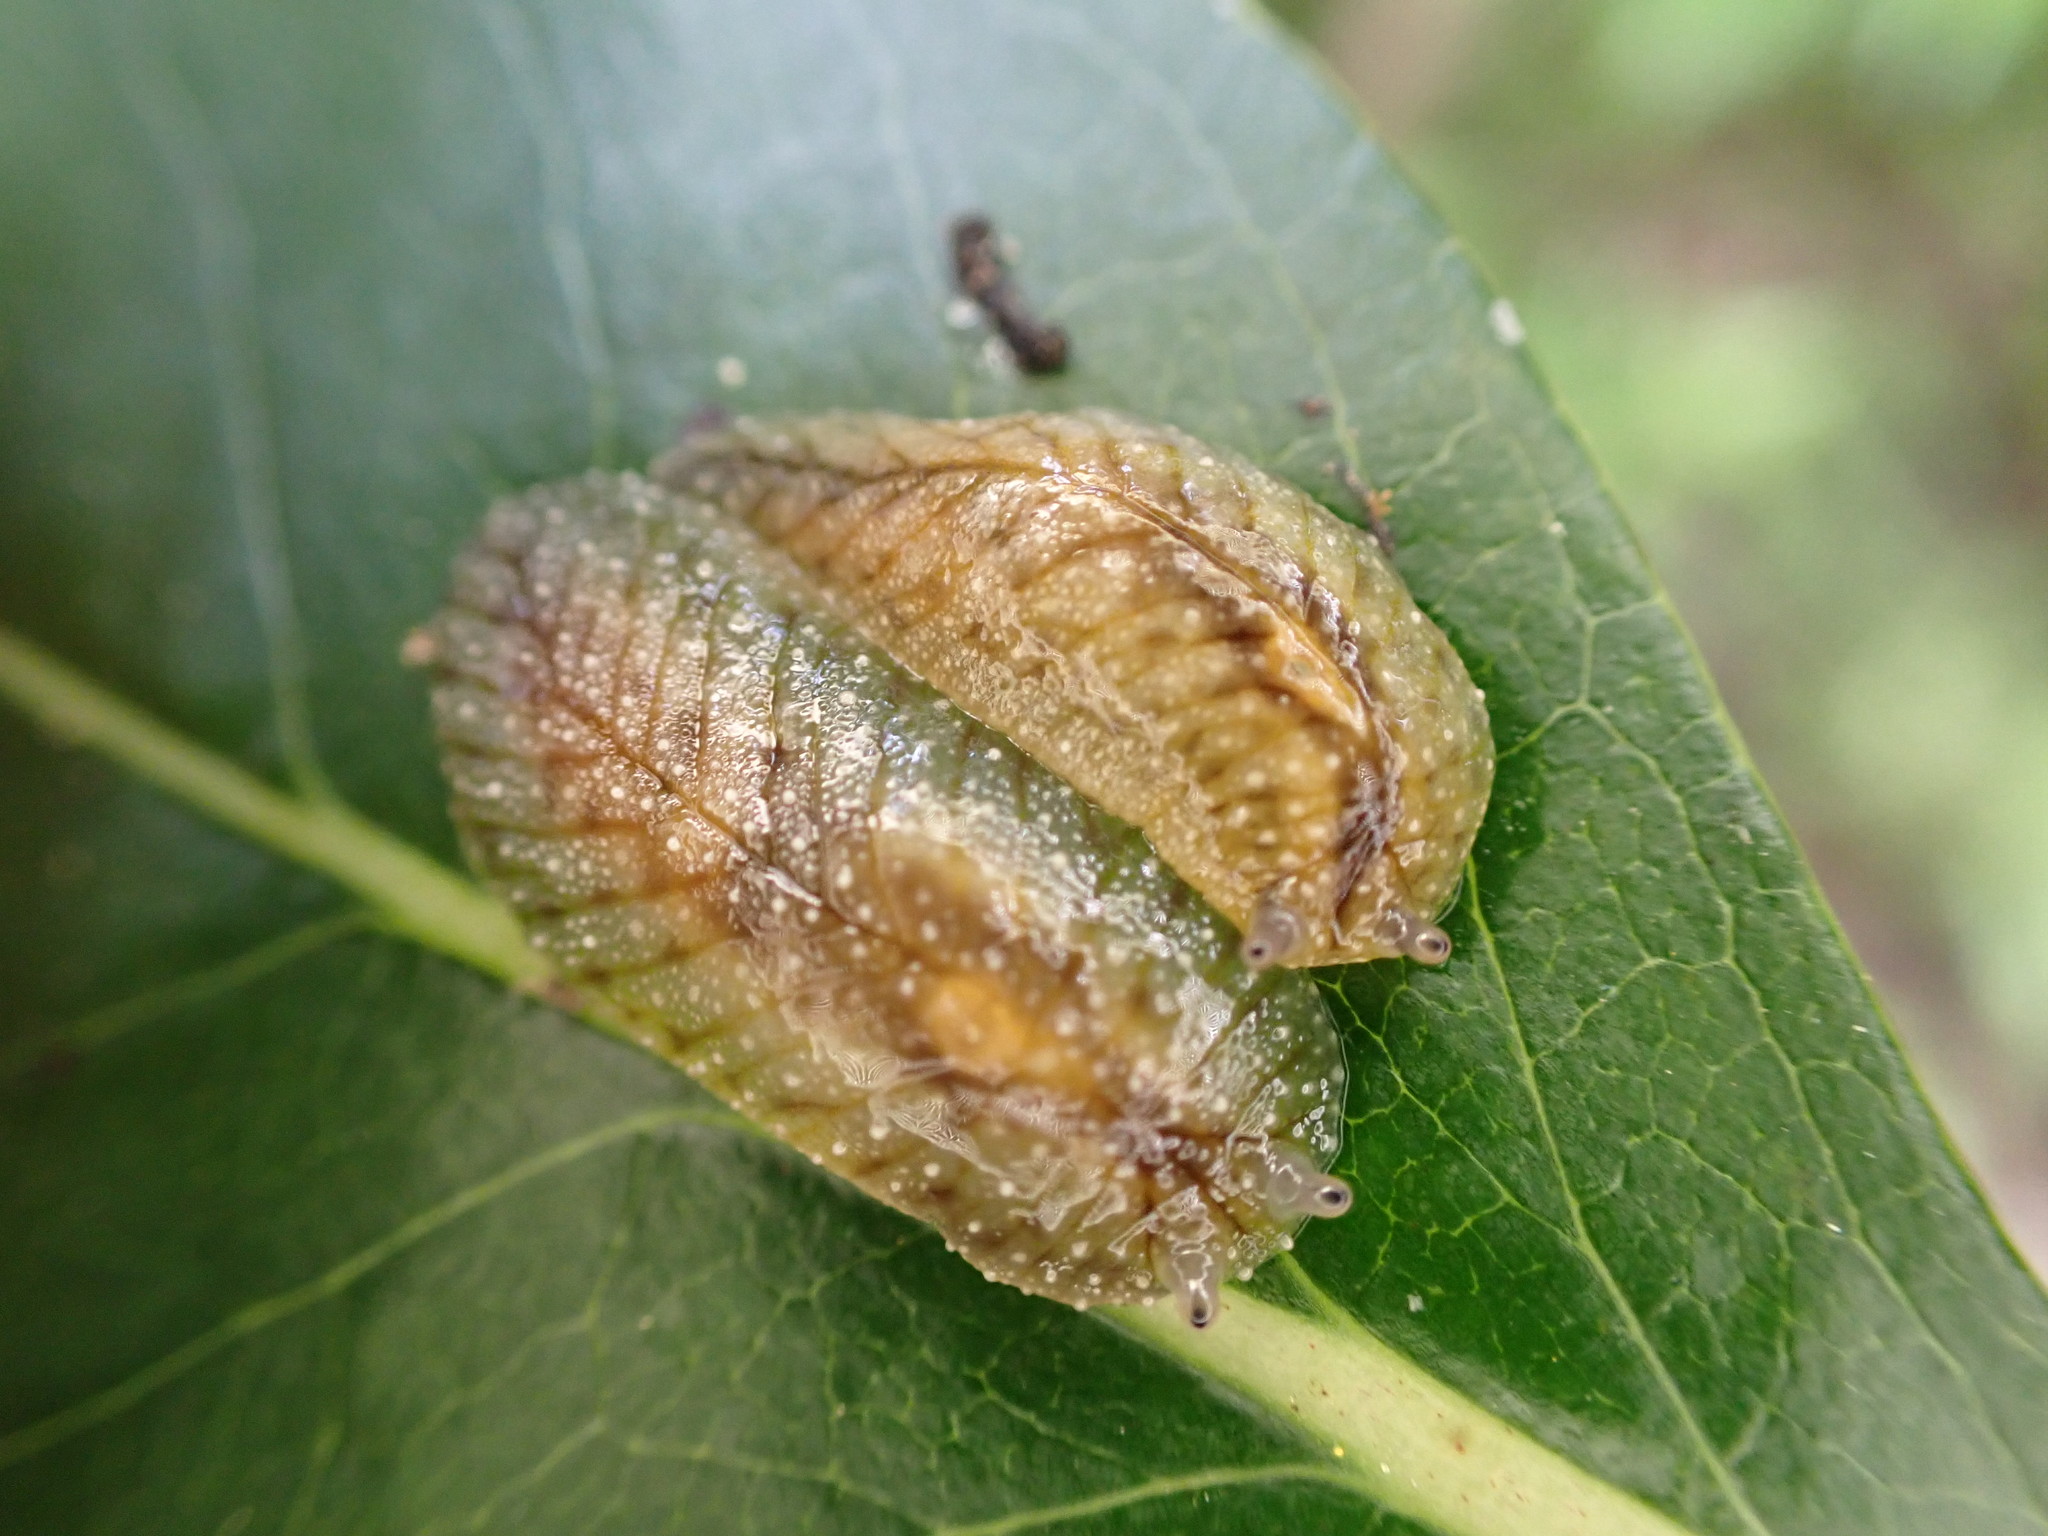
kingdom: Animalia
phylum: Mollusca
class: Gastropoda
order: Stylommatophora
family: Athoracophoridae
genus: Athoracophorus
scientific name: Athoracophorus
